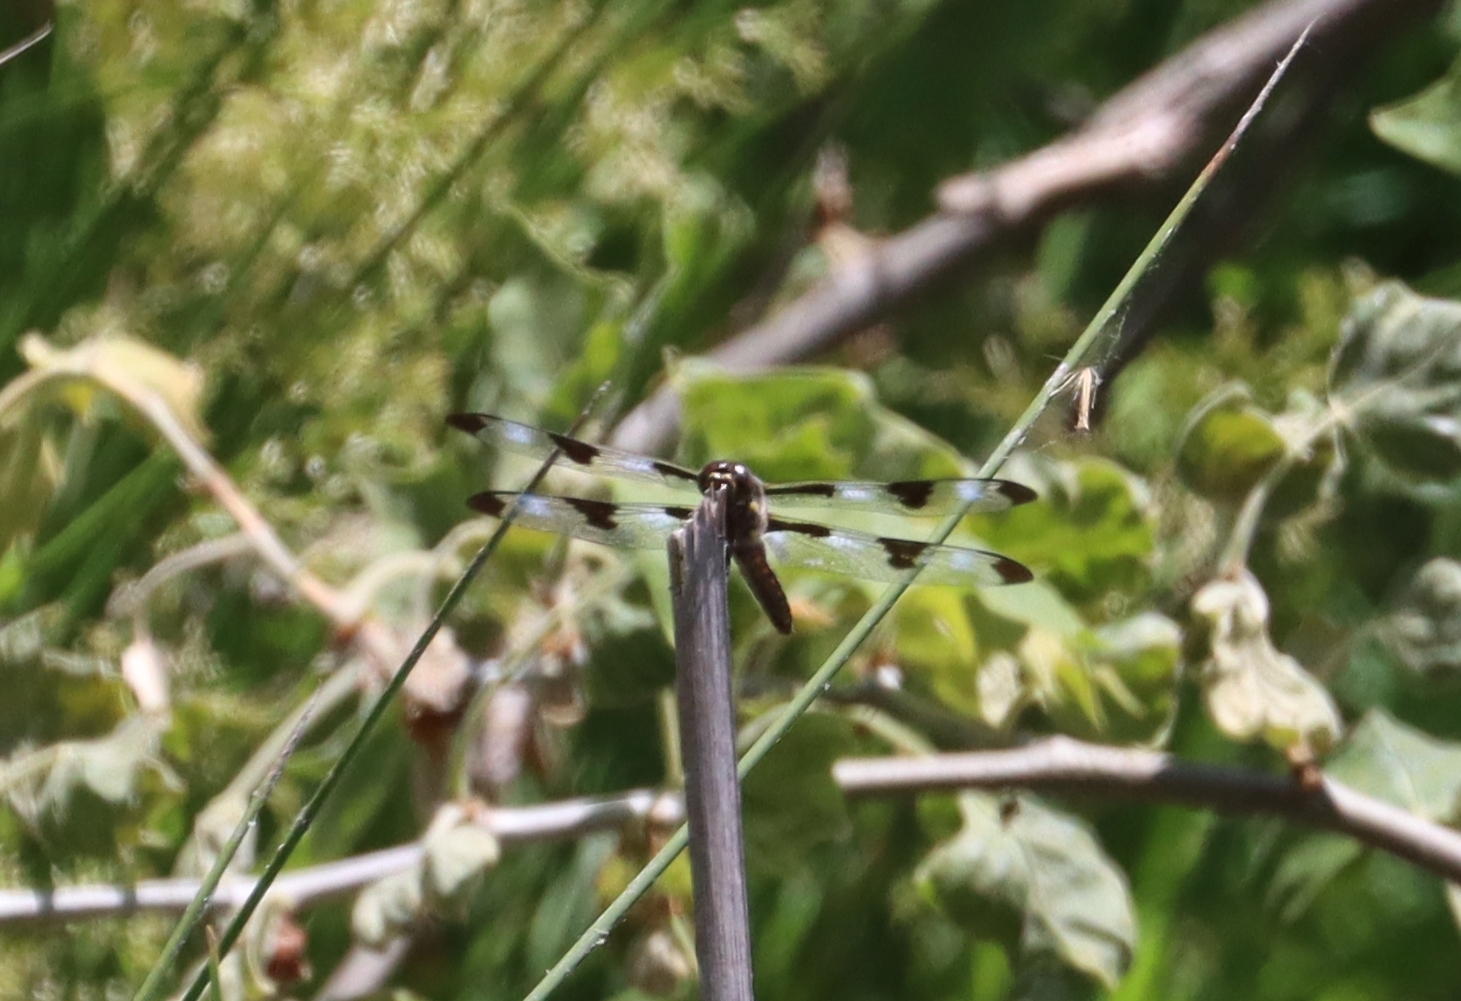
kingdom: Animalia
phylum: Arthropoda
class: Insecta
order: Odonata
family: Libellulidae
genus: Libellula
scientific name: Libellula pulchella
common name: Twelve-spotted skimmer
